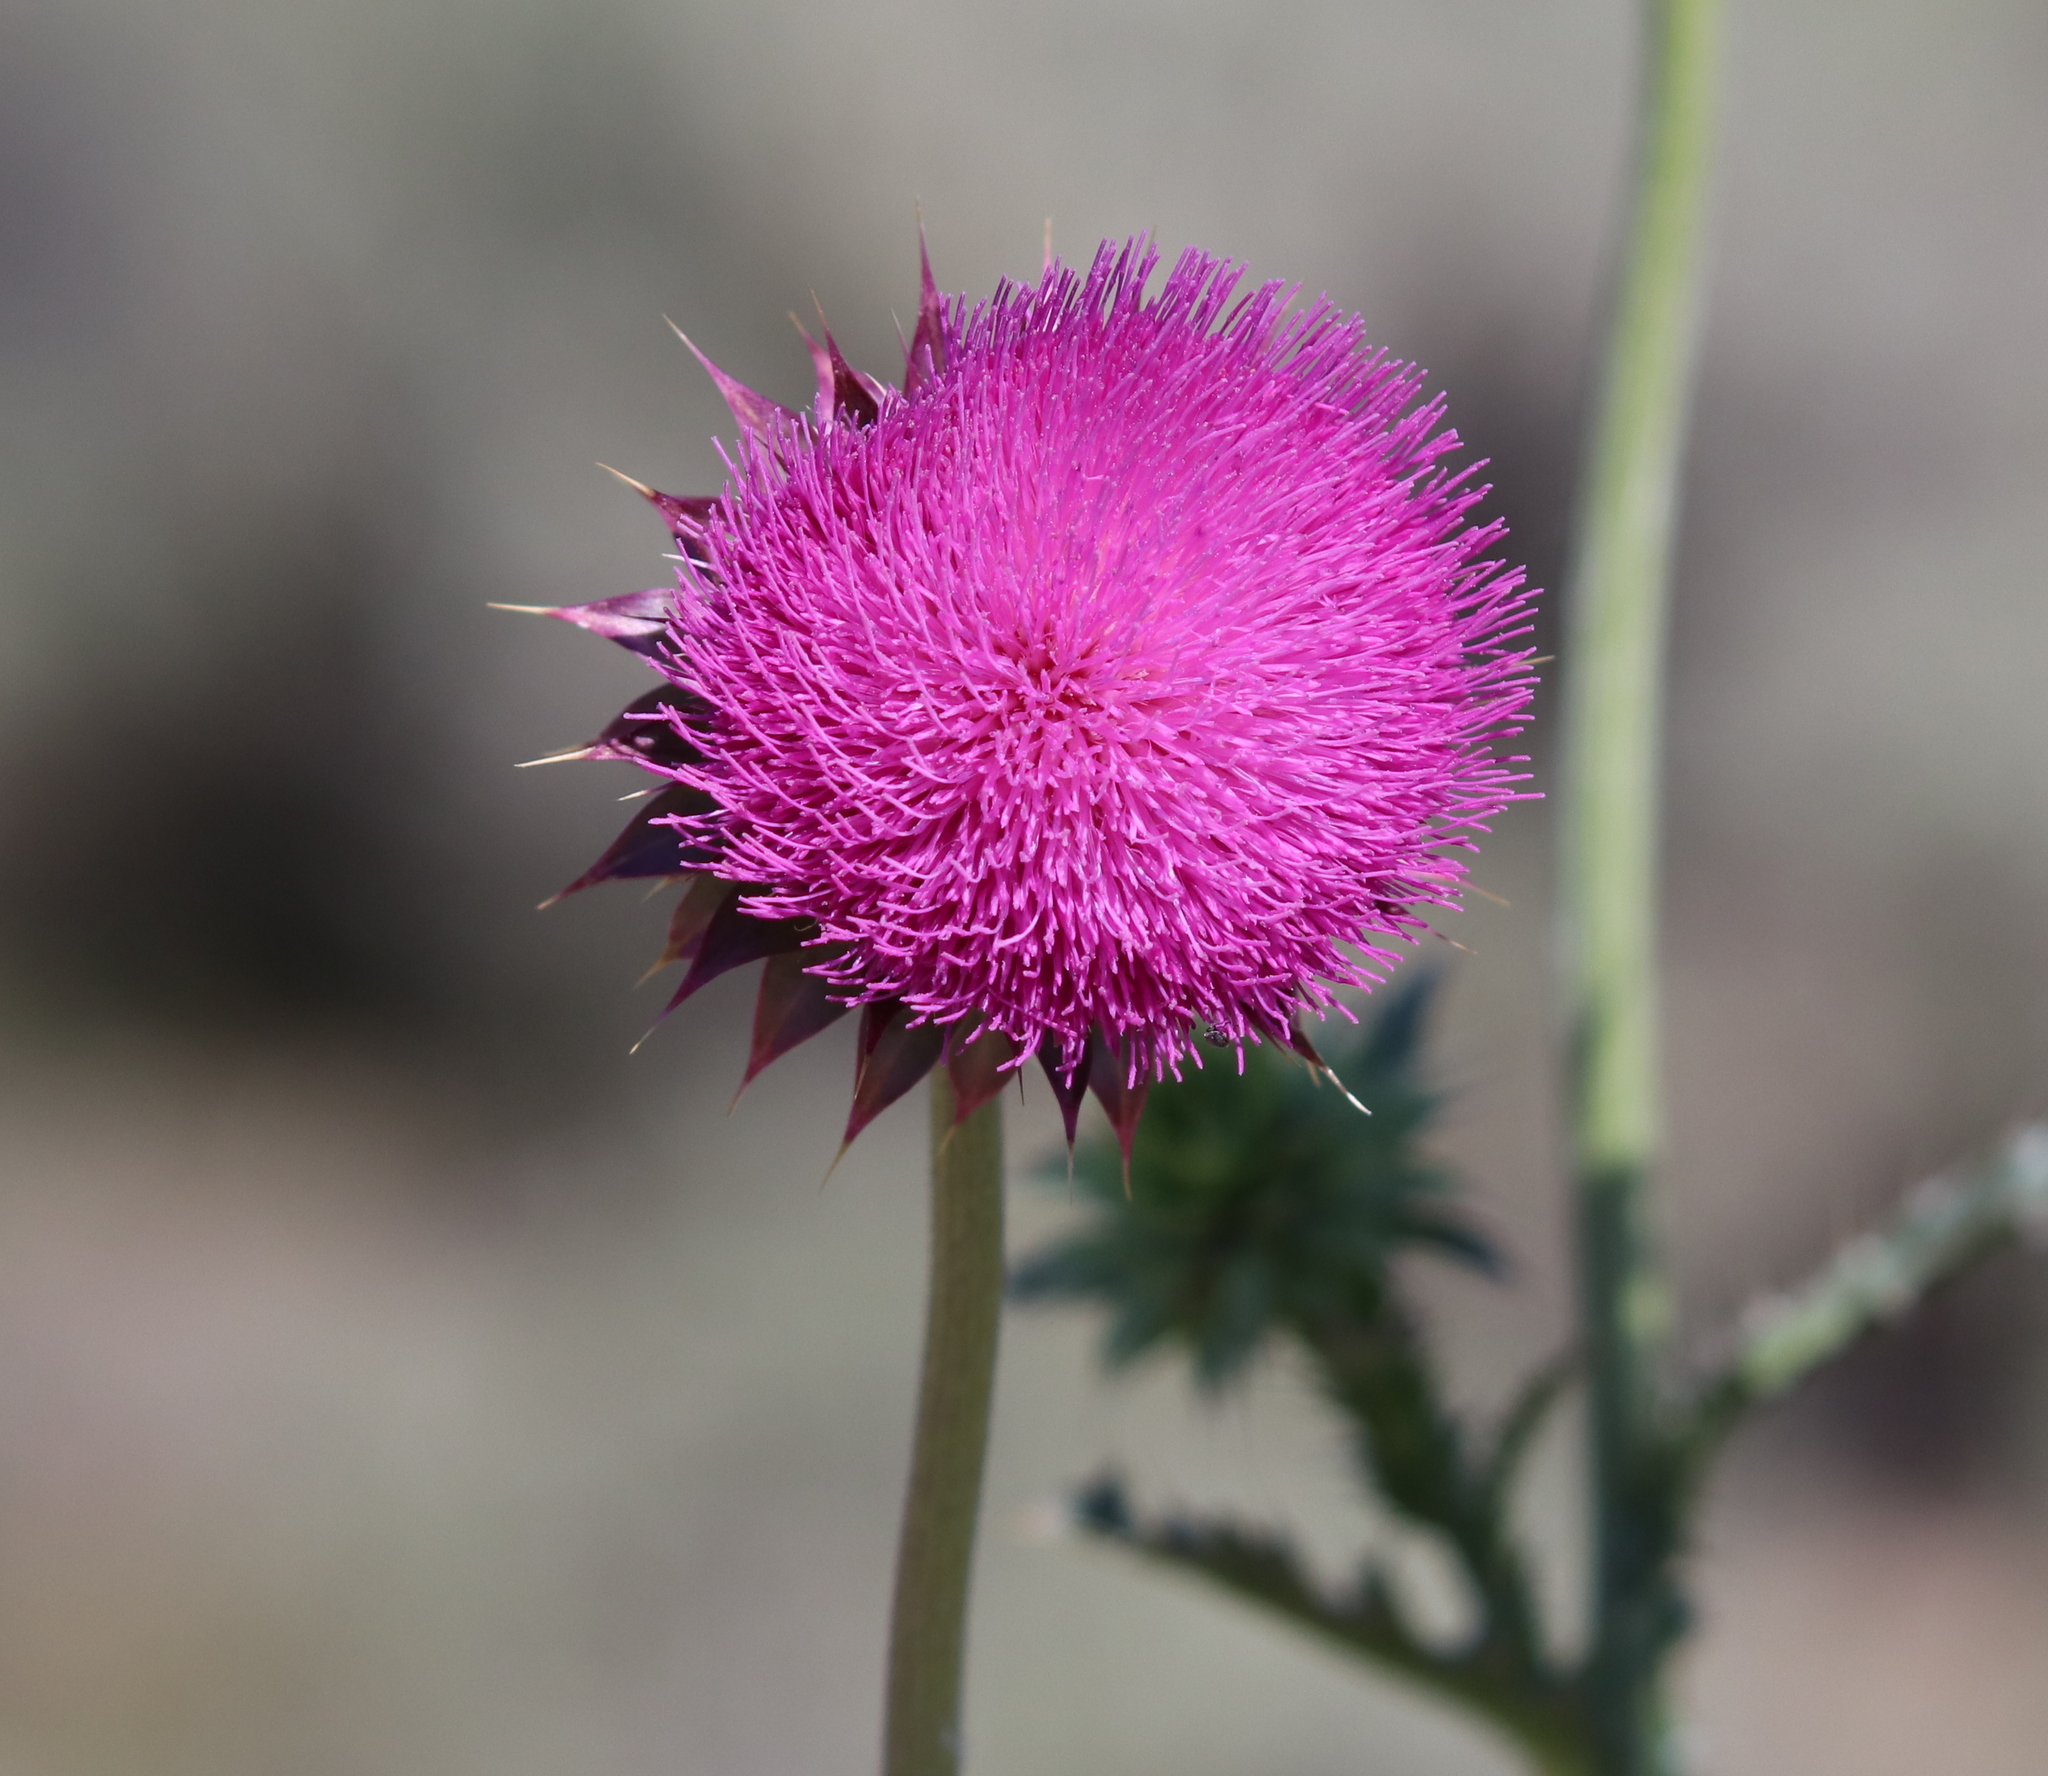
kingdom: Plantae
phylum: Tracheophyta
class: Magnoliopsida
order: Asterales
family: Asteraceae
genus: Carduus
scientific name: Carduus nutans
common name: Musk thistle
